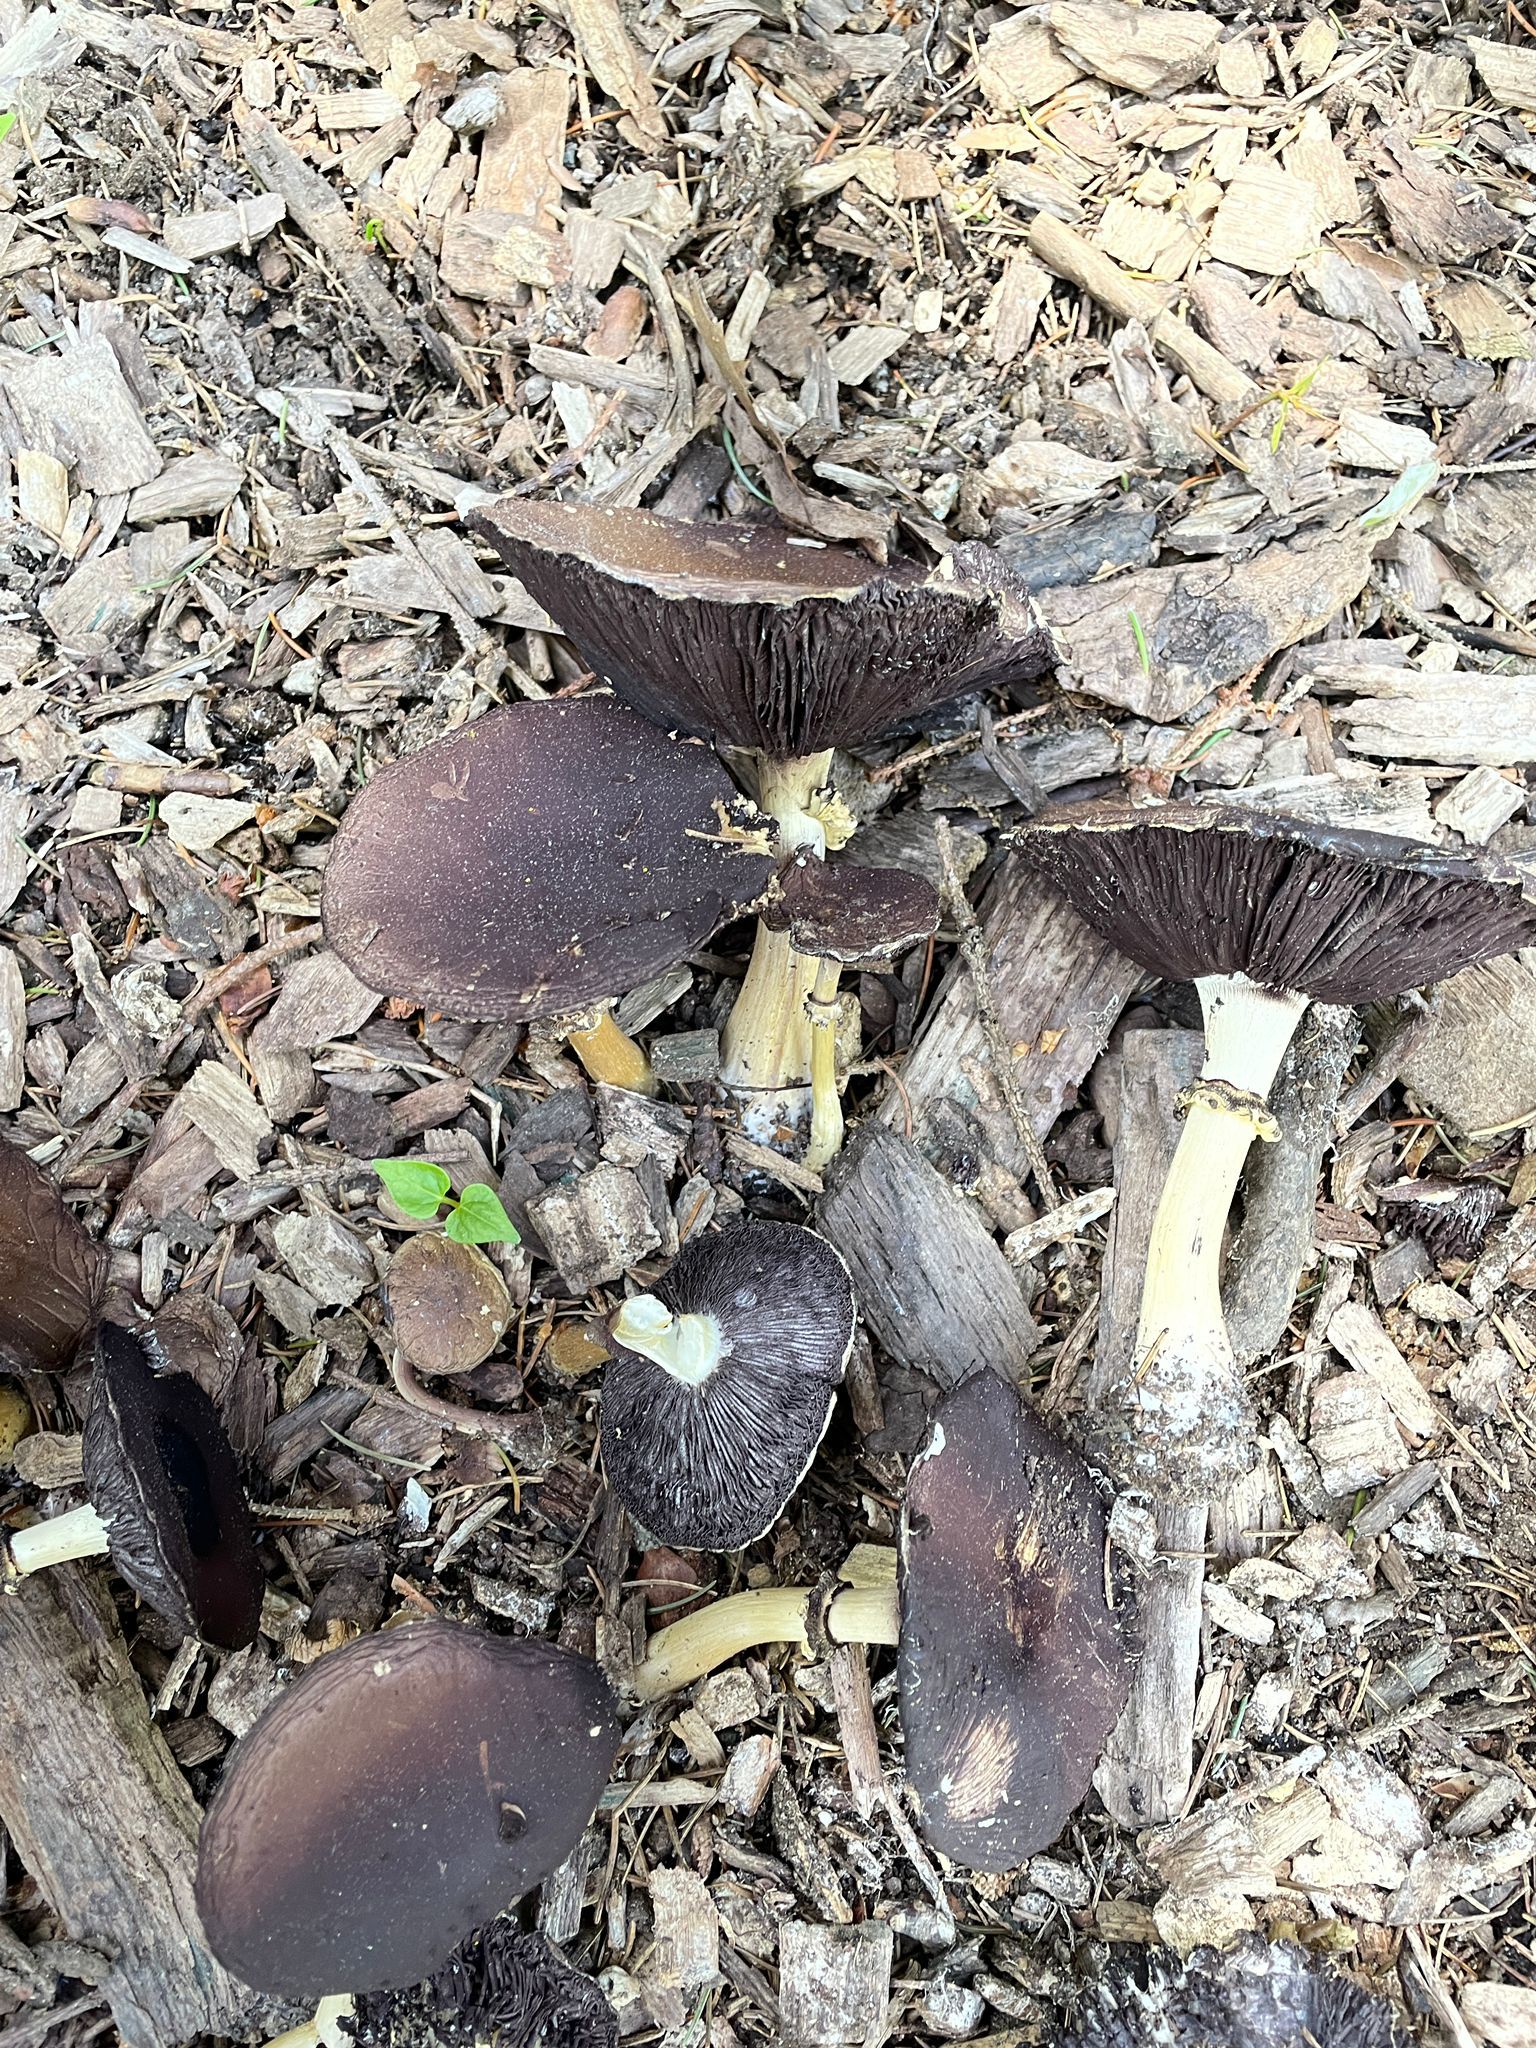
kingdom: Fungi
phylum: Basidiomycota
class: Agaricomycetes
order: Agaricales
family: Strophariaceae
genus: Stropharia
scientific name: Stropharia rugosoannulata
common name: Wine roundhead
